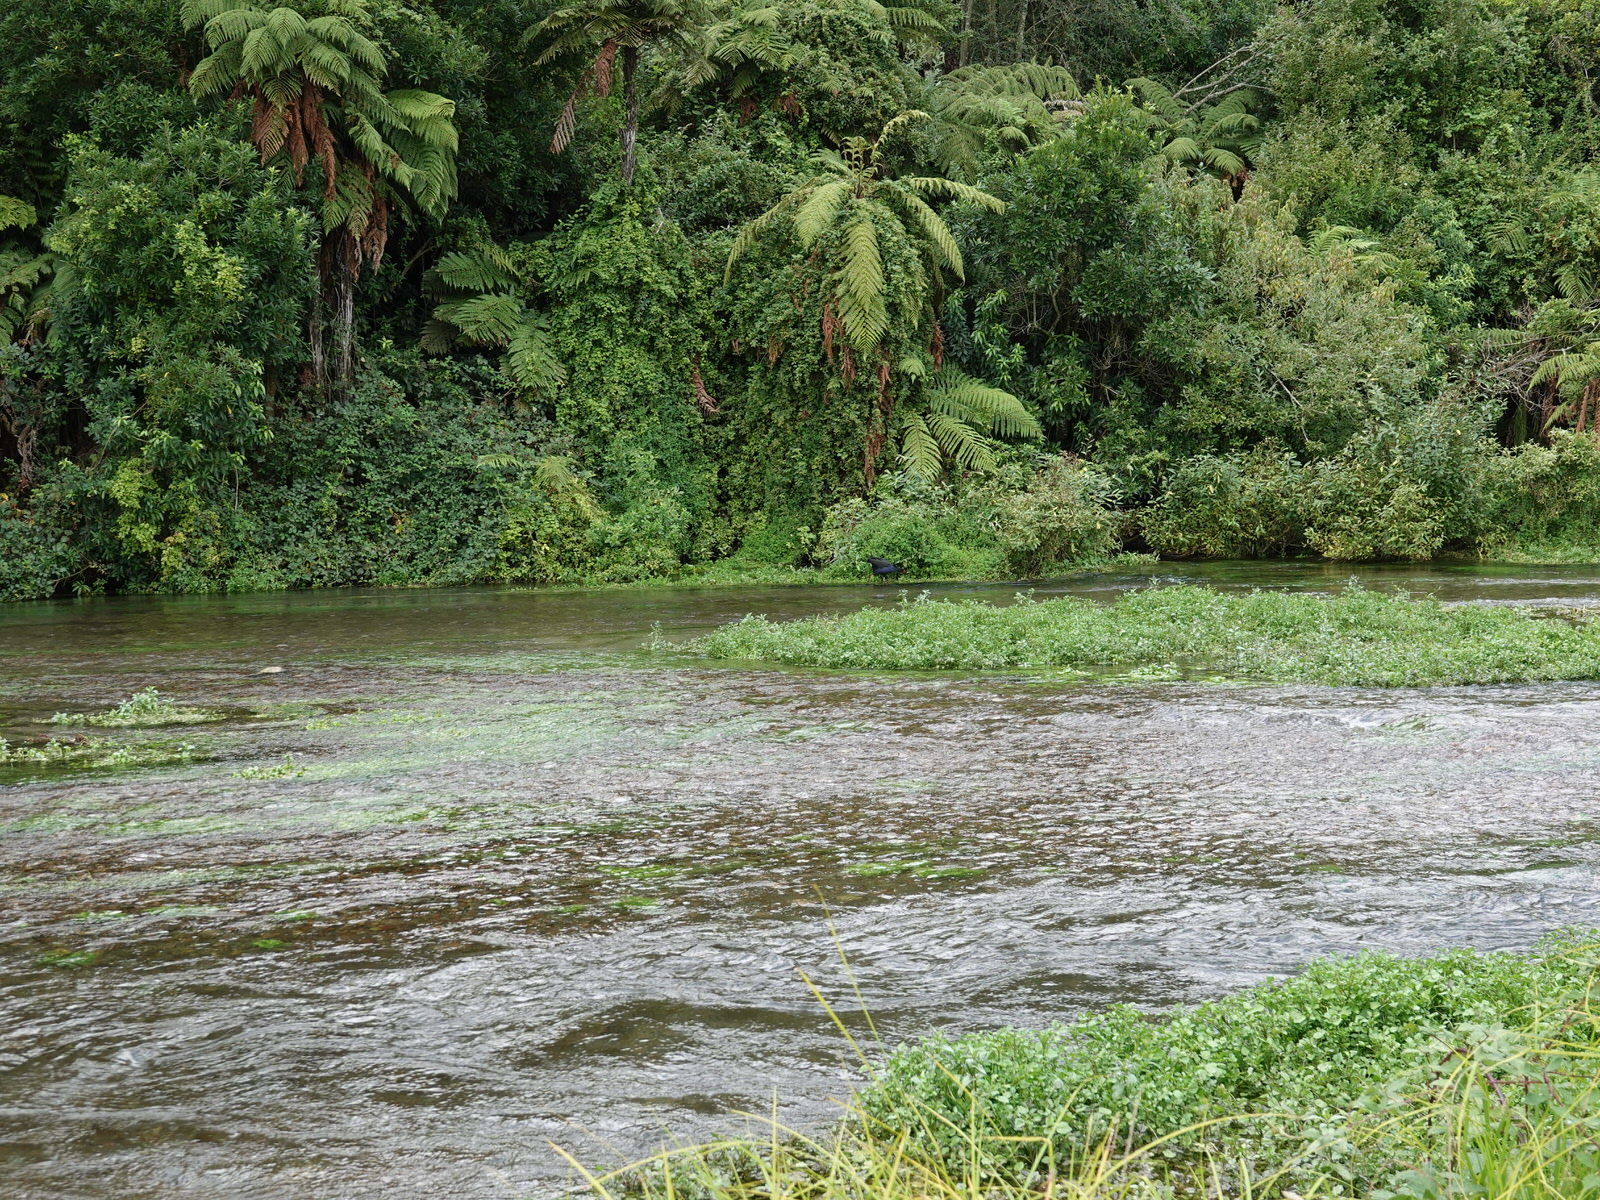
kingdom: Animalia
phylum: Chordata
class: Aves
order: Gruiformes
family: Rallidae
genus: Porphyrio
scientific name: Porphyrio melanotus
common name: Australasian swamphen
